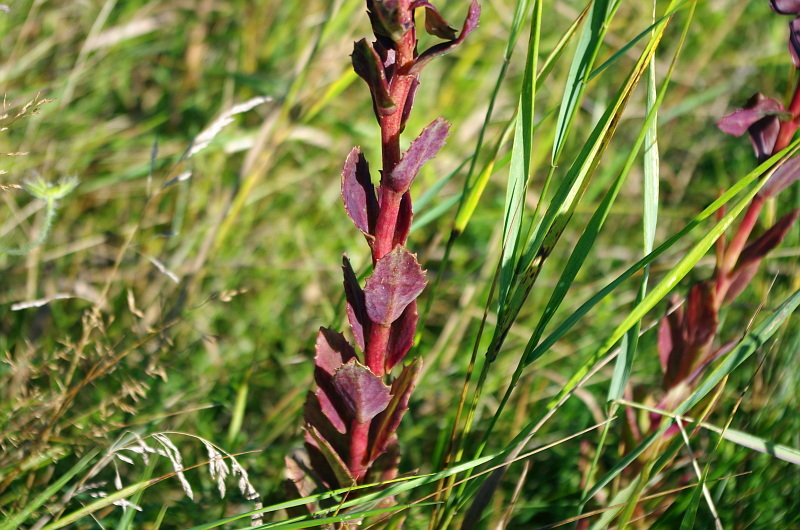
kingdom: Plantae
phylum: Tracheophyta
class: Magnoliopsida
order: Saxifragales
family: Crassulaceae
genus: Hylotelephium
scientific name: Hylotelephium telephium
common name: Live-forever
